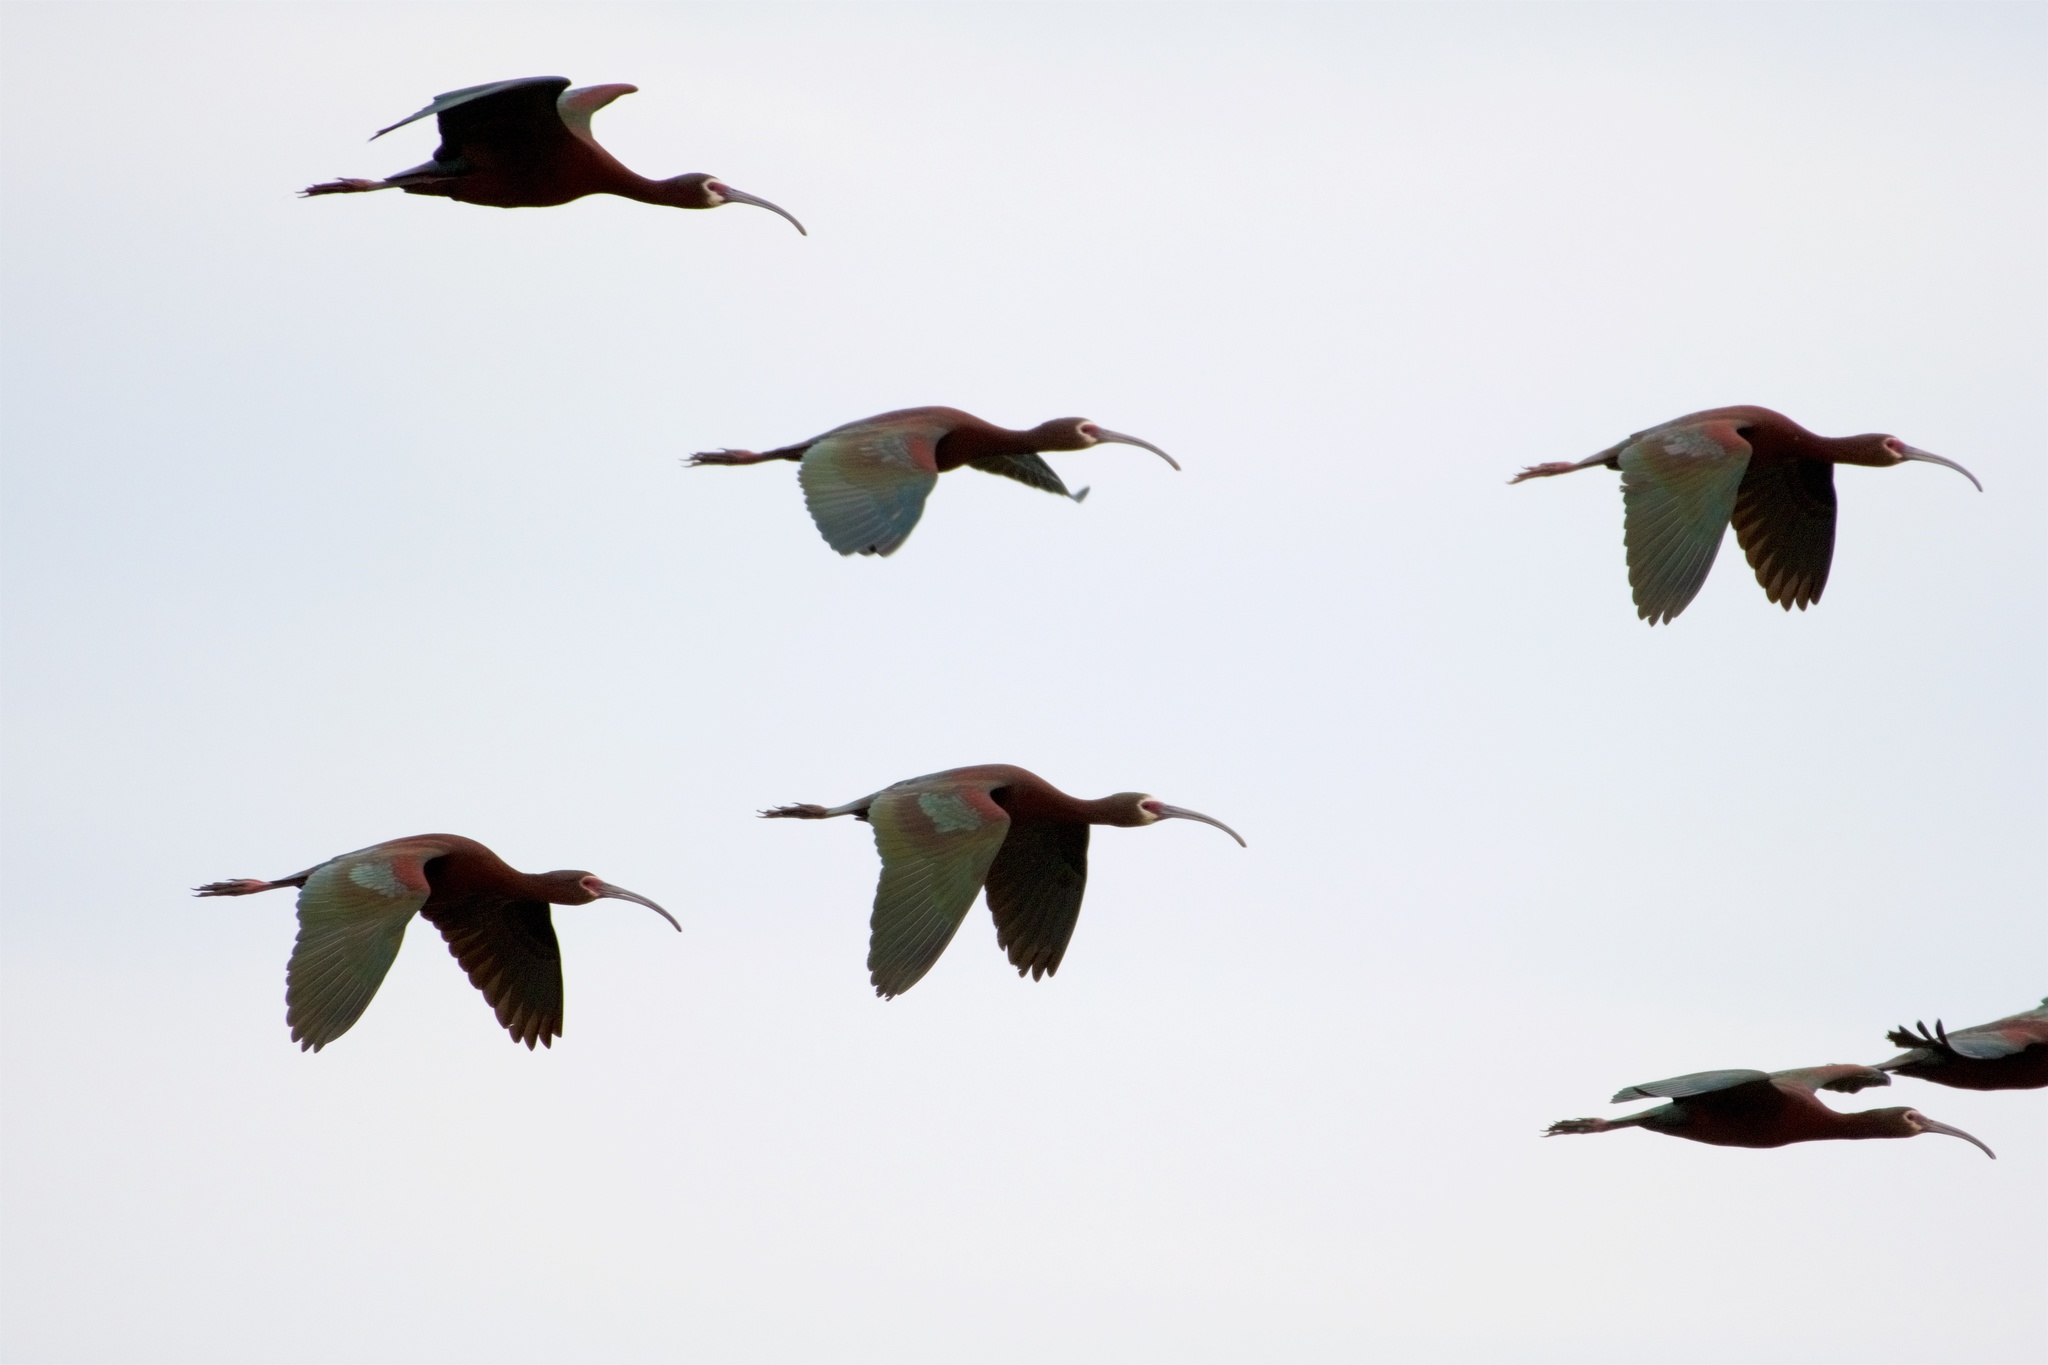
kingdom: Animalia
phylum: Chordata
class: Aves
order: Pelecaniformes
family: Threskiornithidae
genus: Plegadis
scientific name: Plegadis chihi
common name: White-faced ibis
